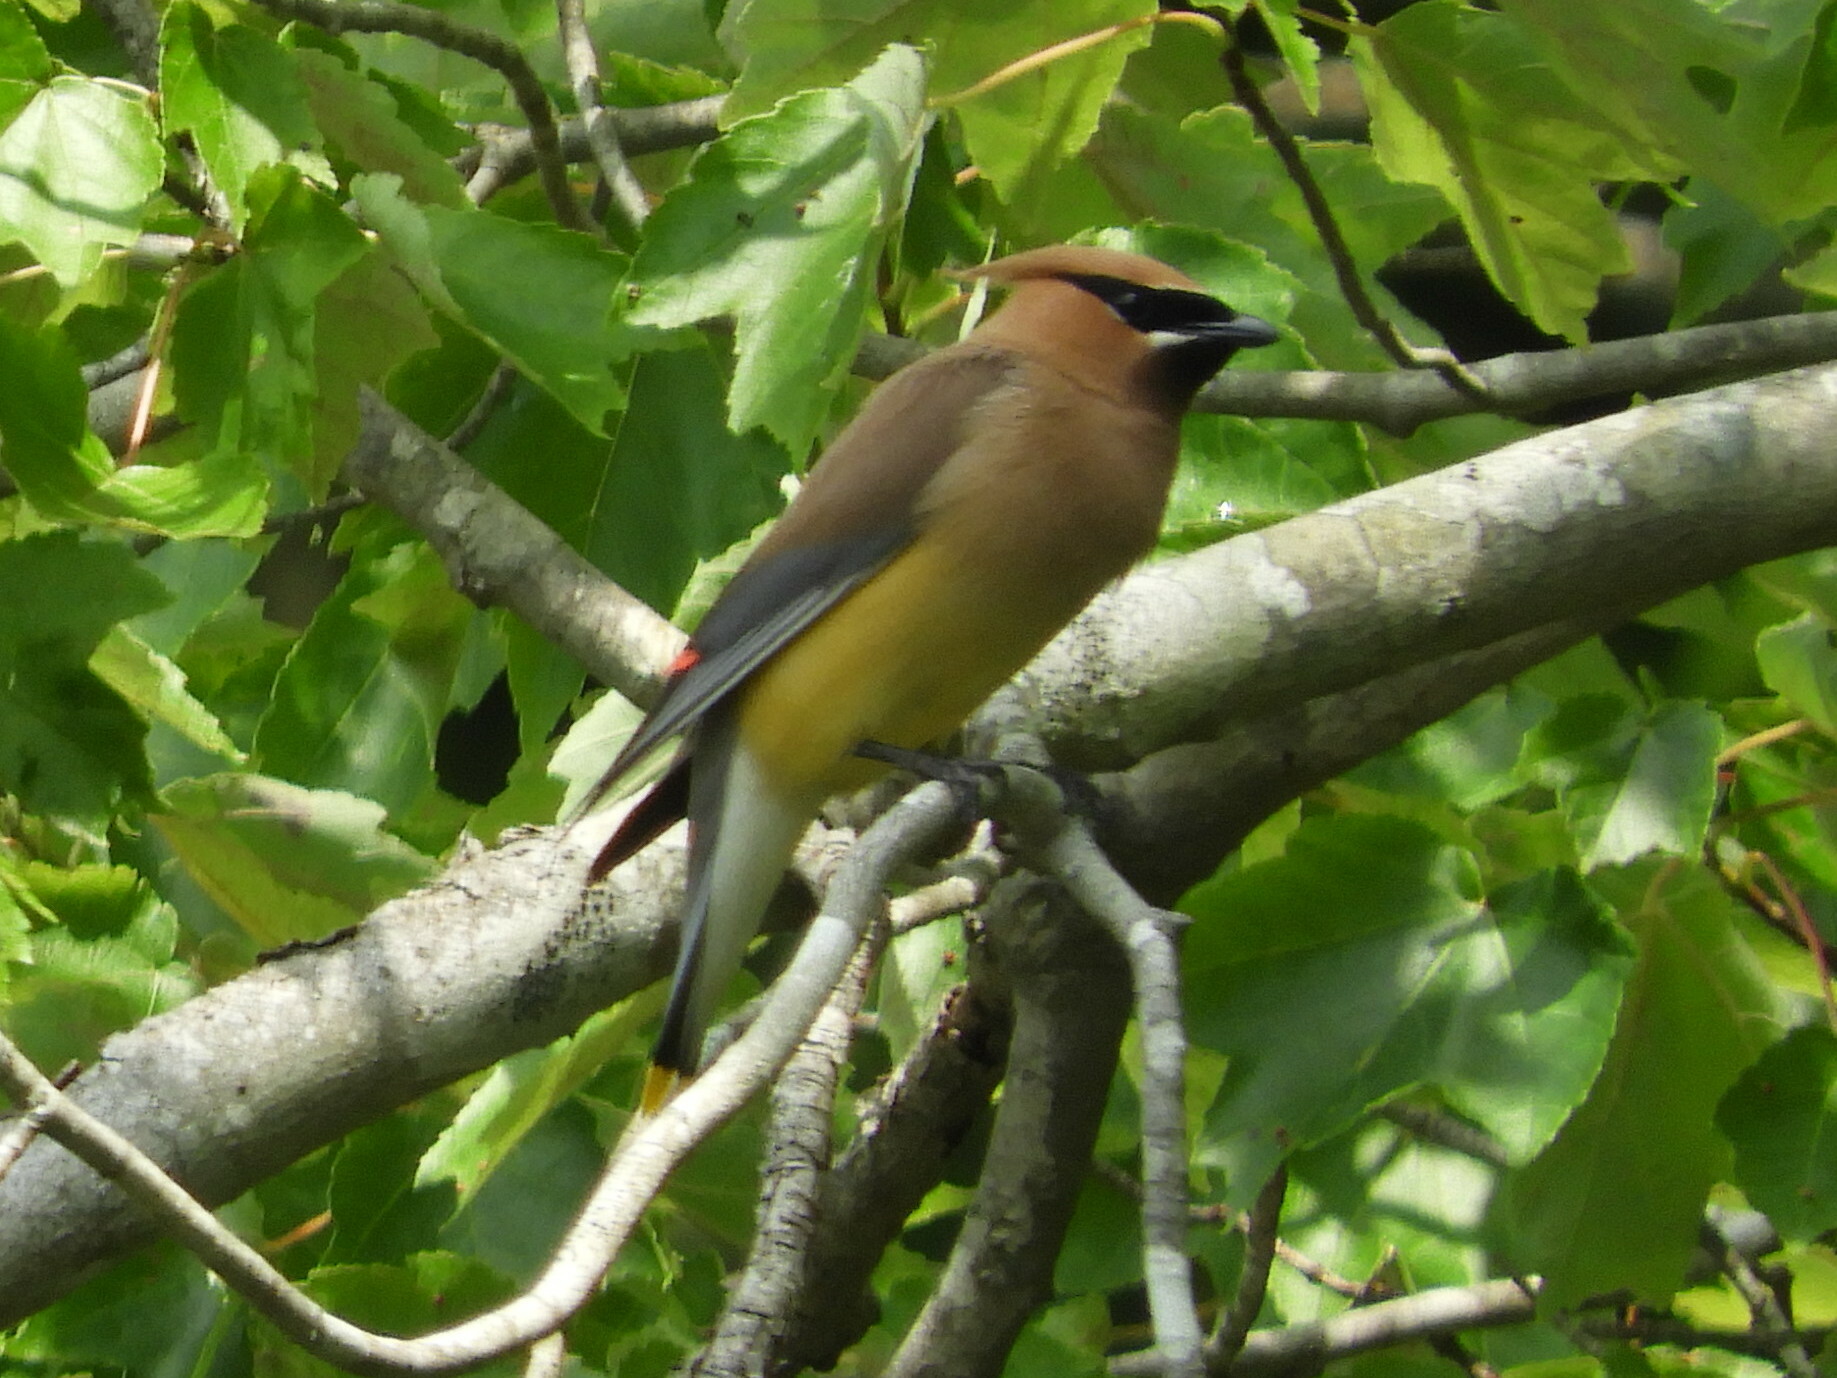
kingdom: Animalia
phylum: Chordata
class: Aves
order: Passeriformes
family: Bombycillidae
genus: Bombycilla
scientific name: Bombycilla cedrorum
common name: Cedar waxwing
